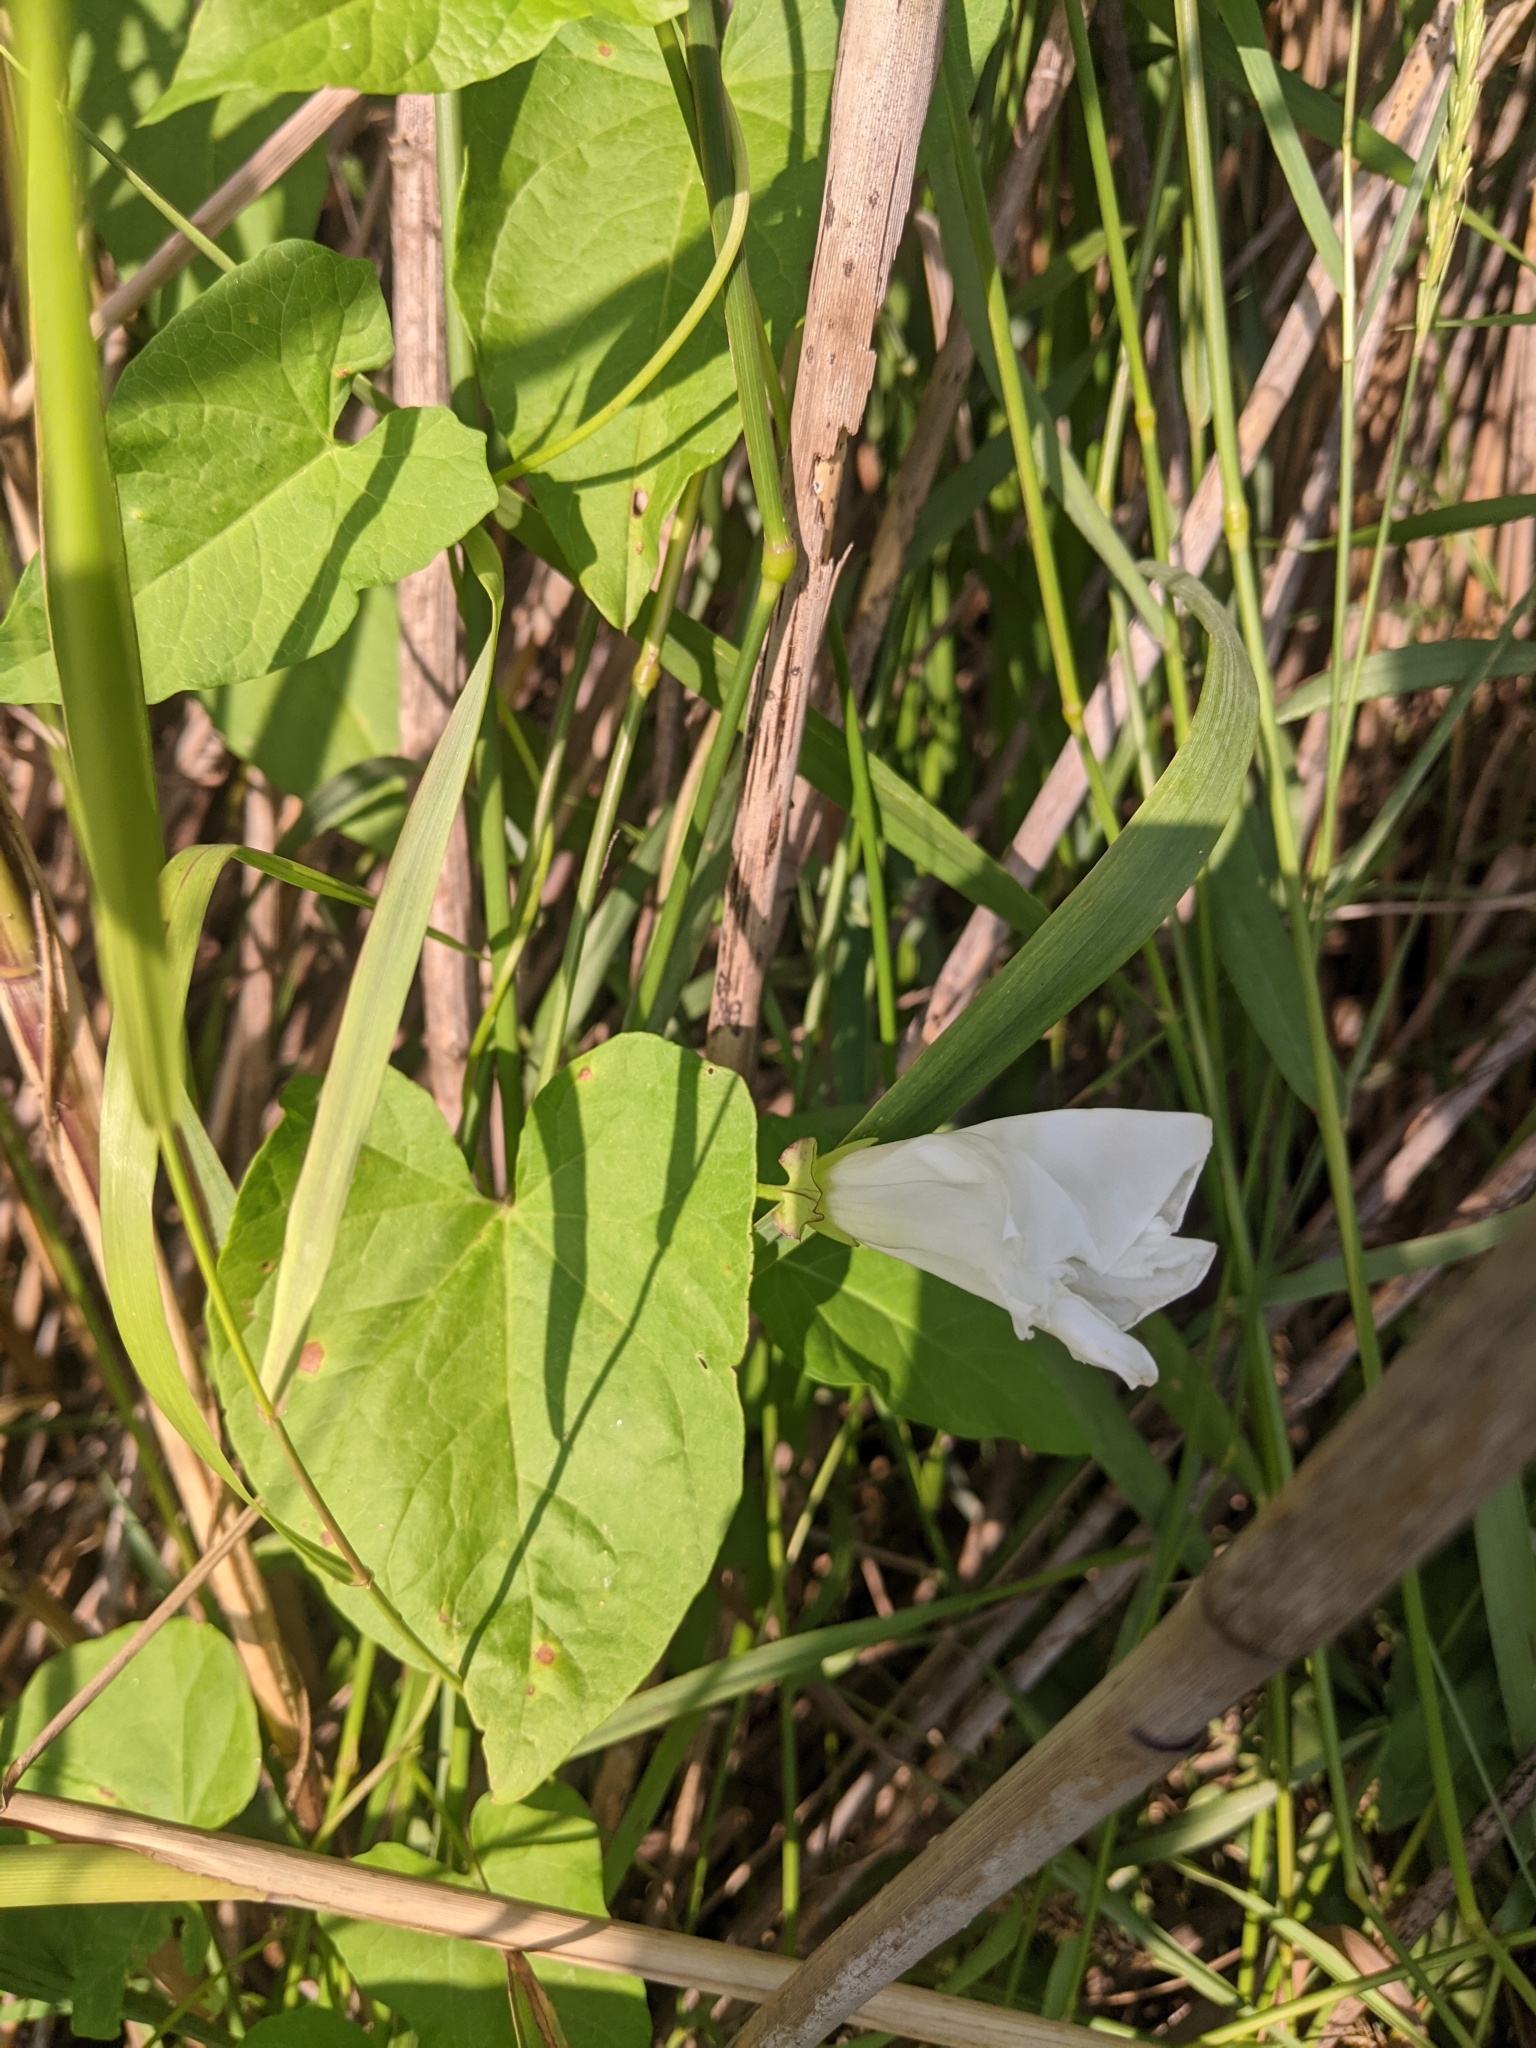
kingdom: Plantae
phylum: Tracheophyta
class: Magnoliopsida
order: Solanales
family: Convolvulaceae
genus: Calystegia
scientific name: Calystegia sepium
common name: Hedge bindweed
